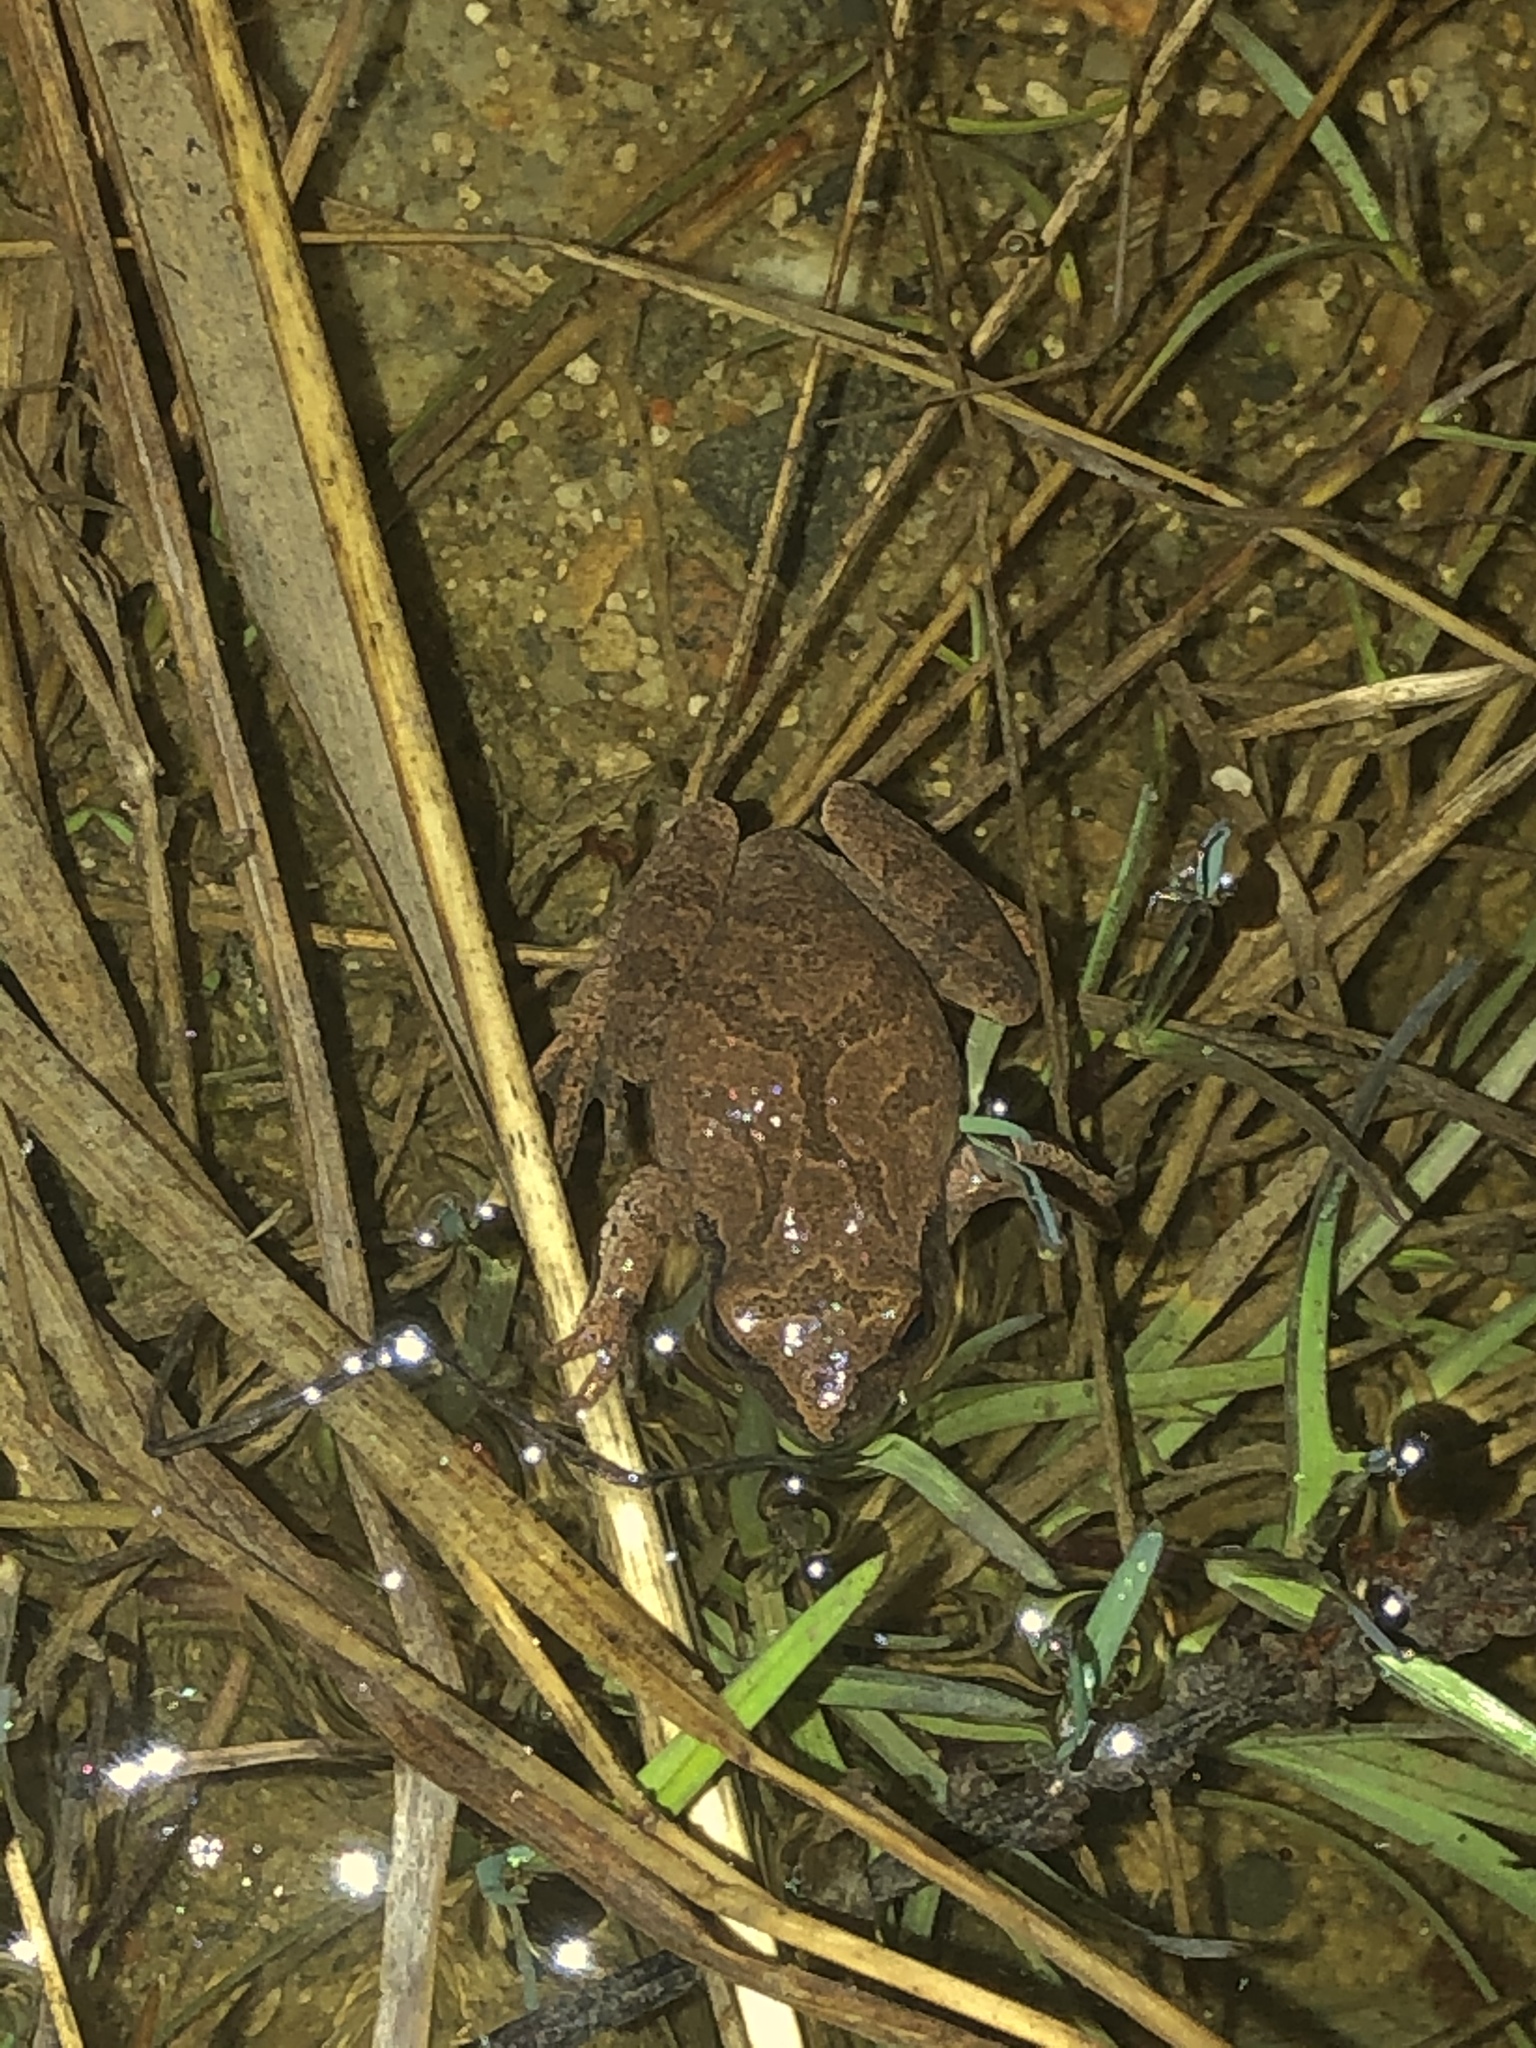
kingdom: Animalia
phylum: Chordata
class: Amphibia
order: Anura
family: Hylidae
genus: Pseudacris
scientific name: Pseudacris crucifer
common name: Spring peeper
